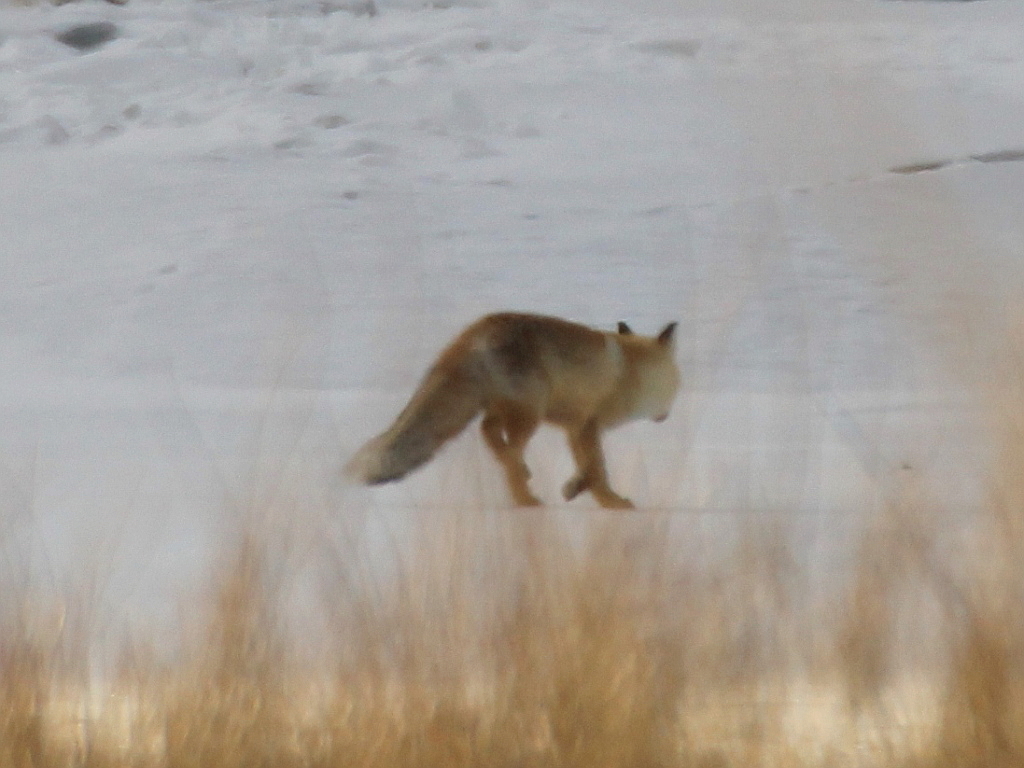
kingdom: Animalia
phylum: Chordata
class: Mammalia
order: Carnivora
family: Canidae
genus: Vulpes
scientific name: Vulpes vulpes
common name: Red fox
